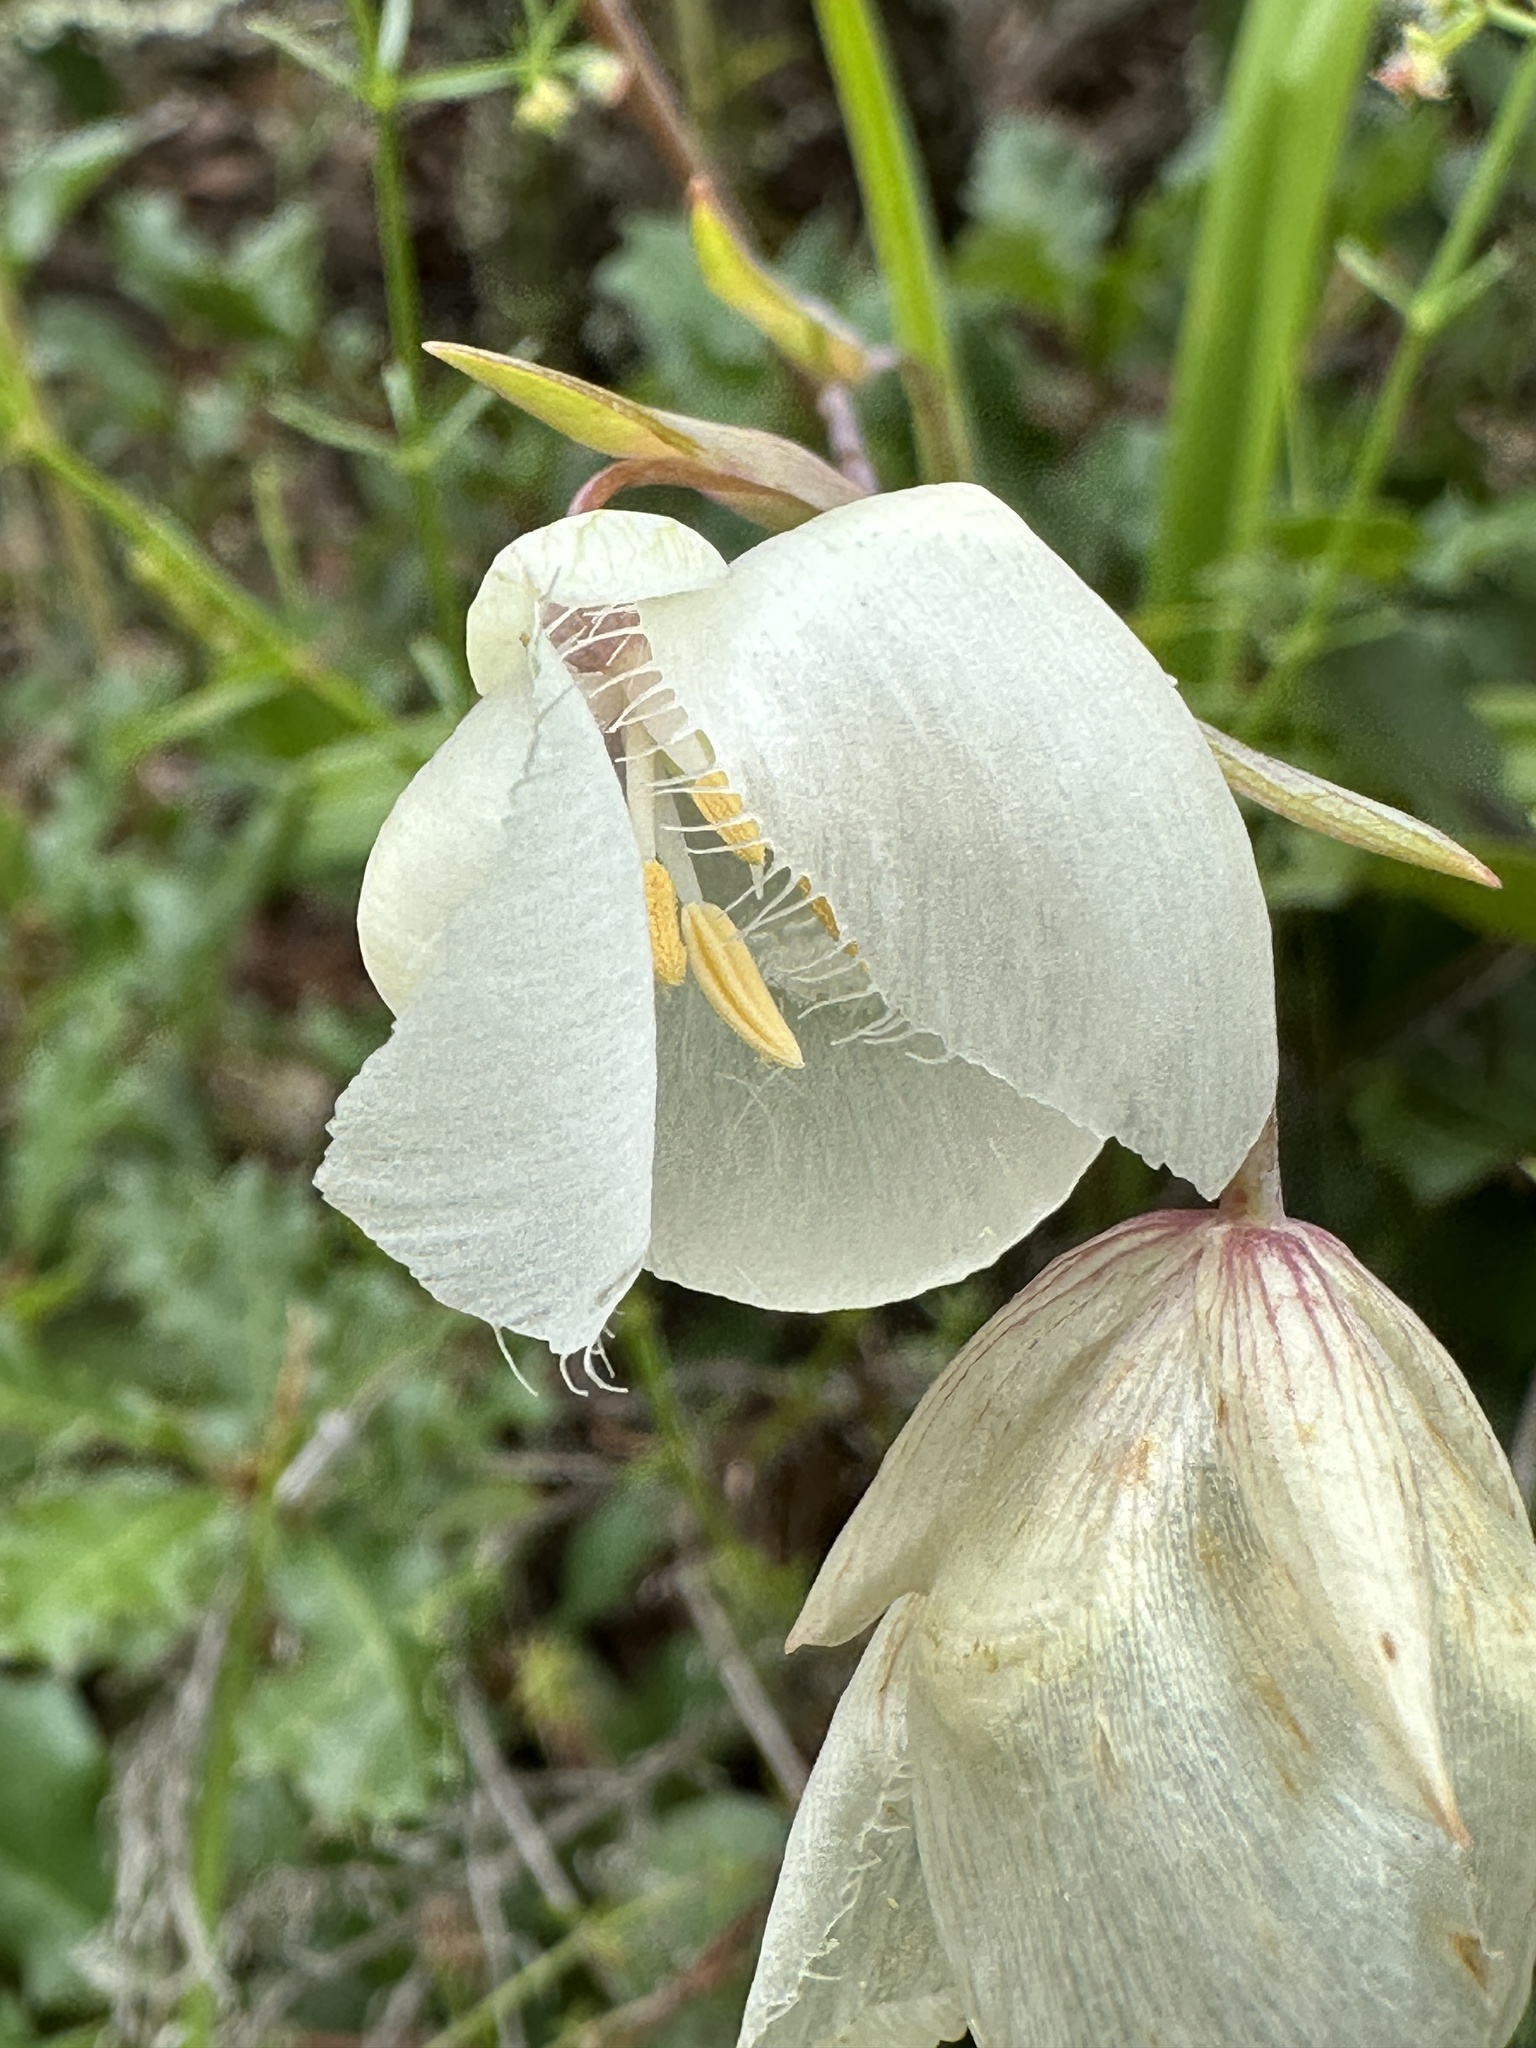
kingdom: Plantae
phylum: Tracheophyta
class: Liliopsida
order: Liliales
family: Liliaceae
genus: Calochortus
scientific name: Calochortus albus
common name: Fairy-lantern
